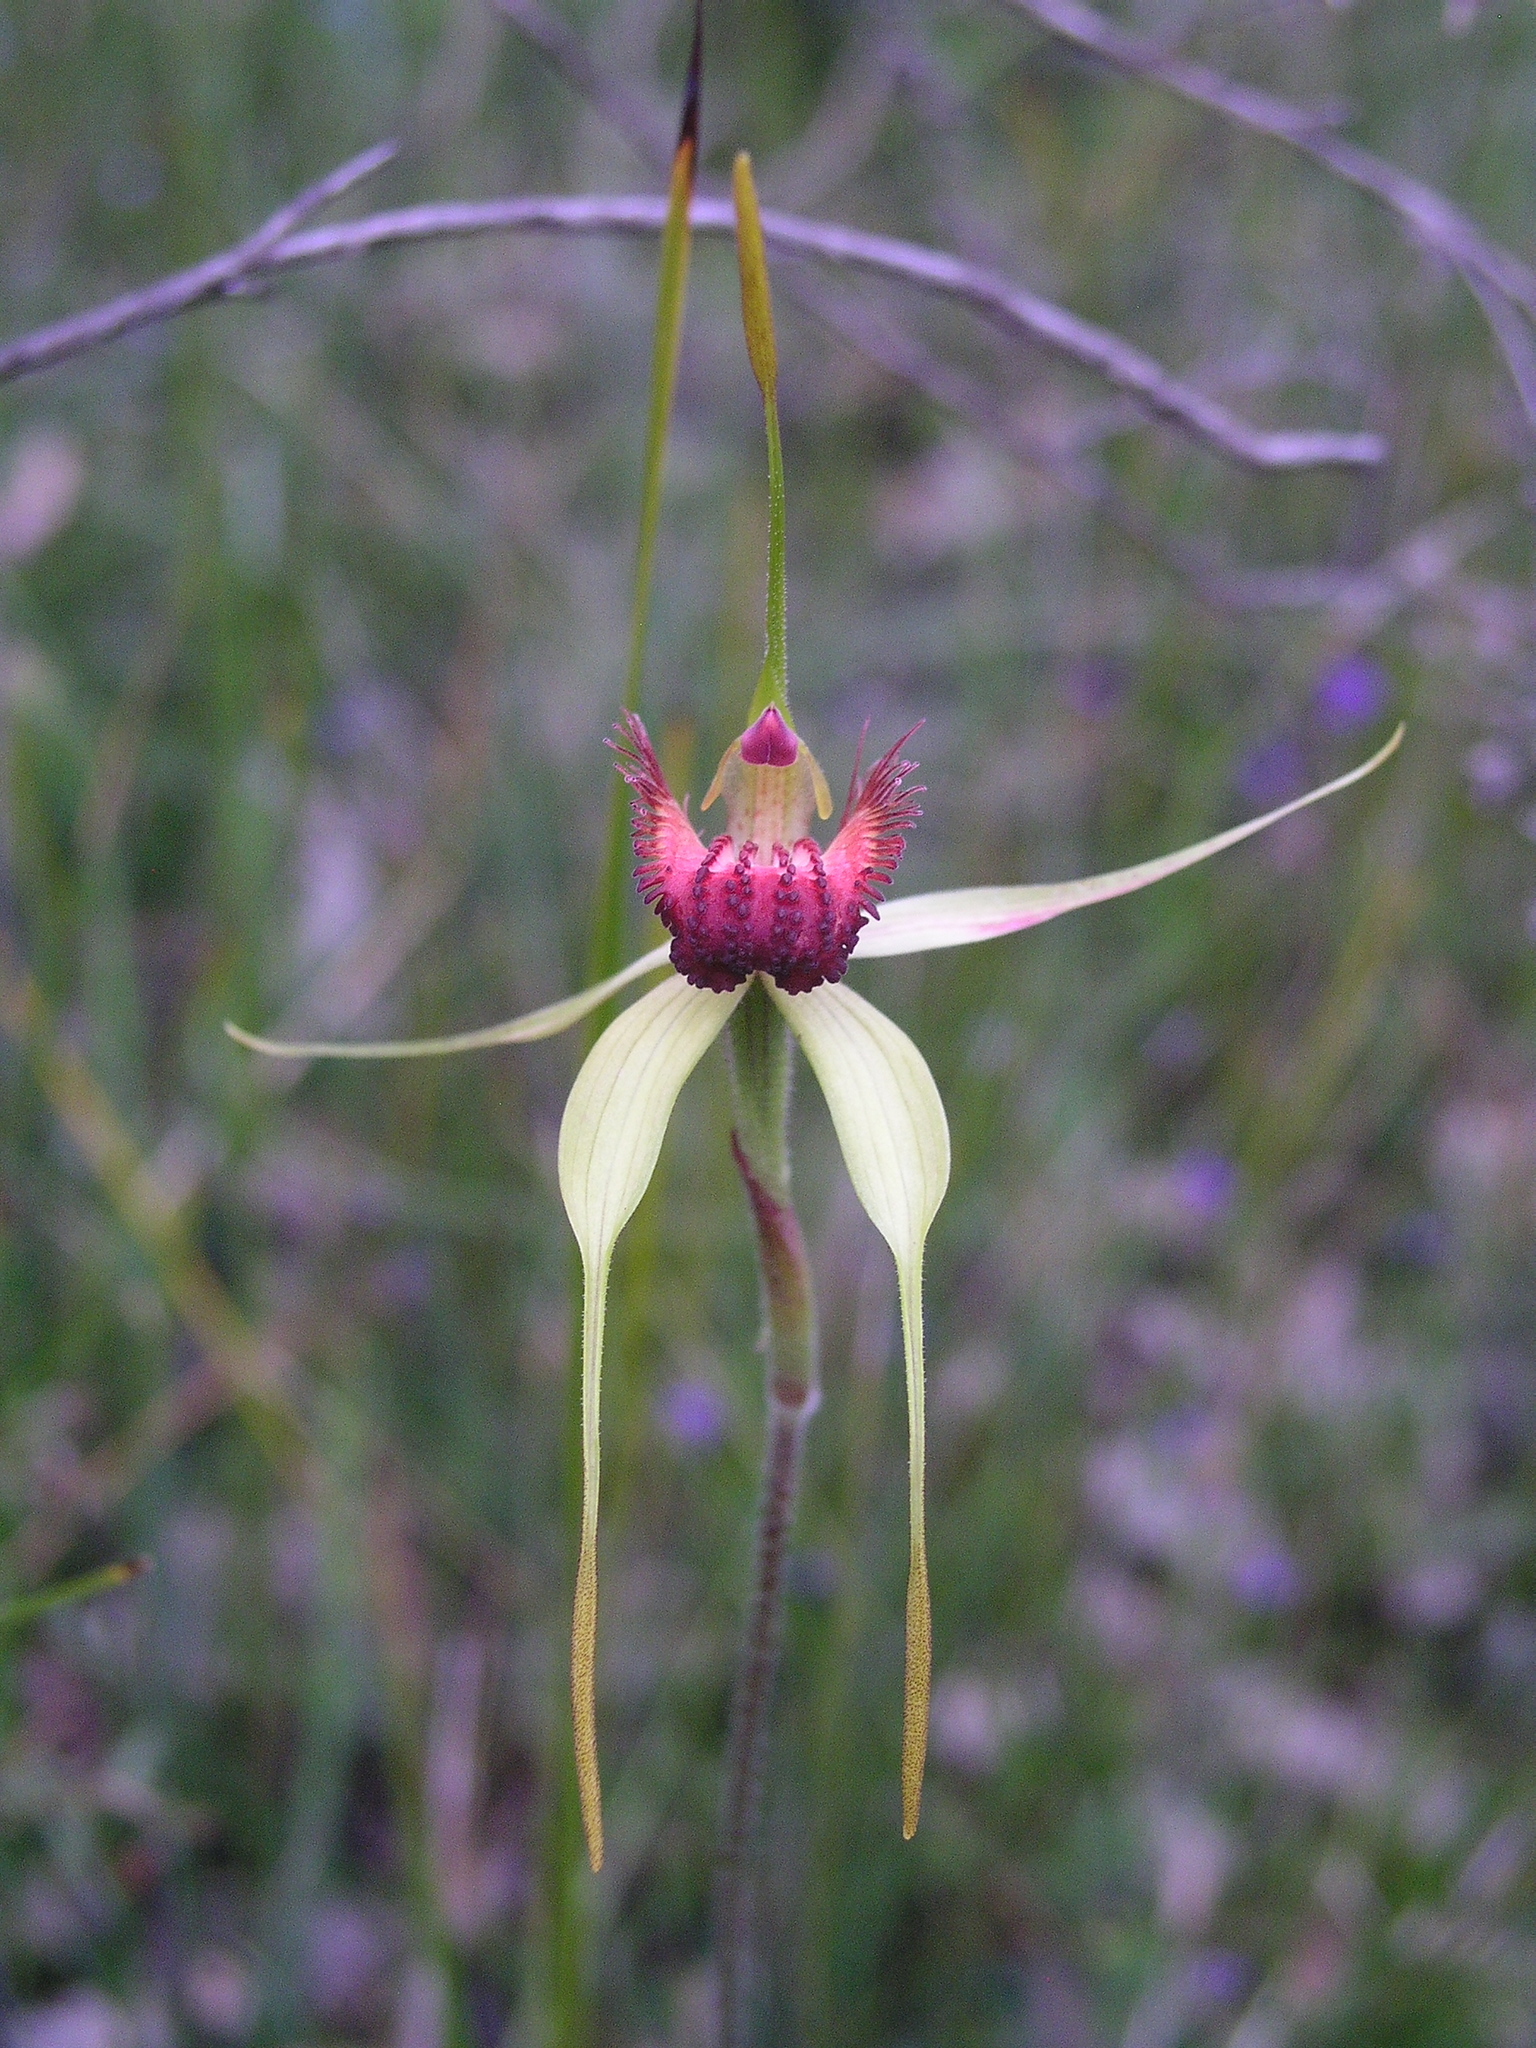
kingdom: Plantae
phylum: Tracheophyta
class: Liliopsida
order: Asparagales
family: Orchidaceae
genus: Caladenia
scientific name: Caladenia pectinata
